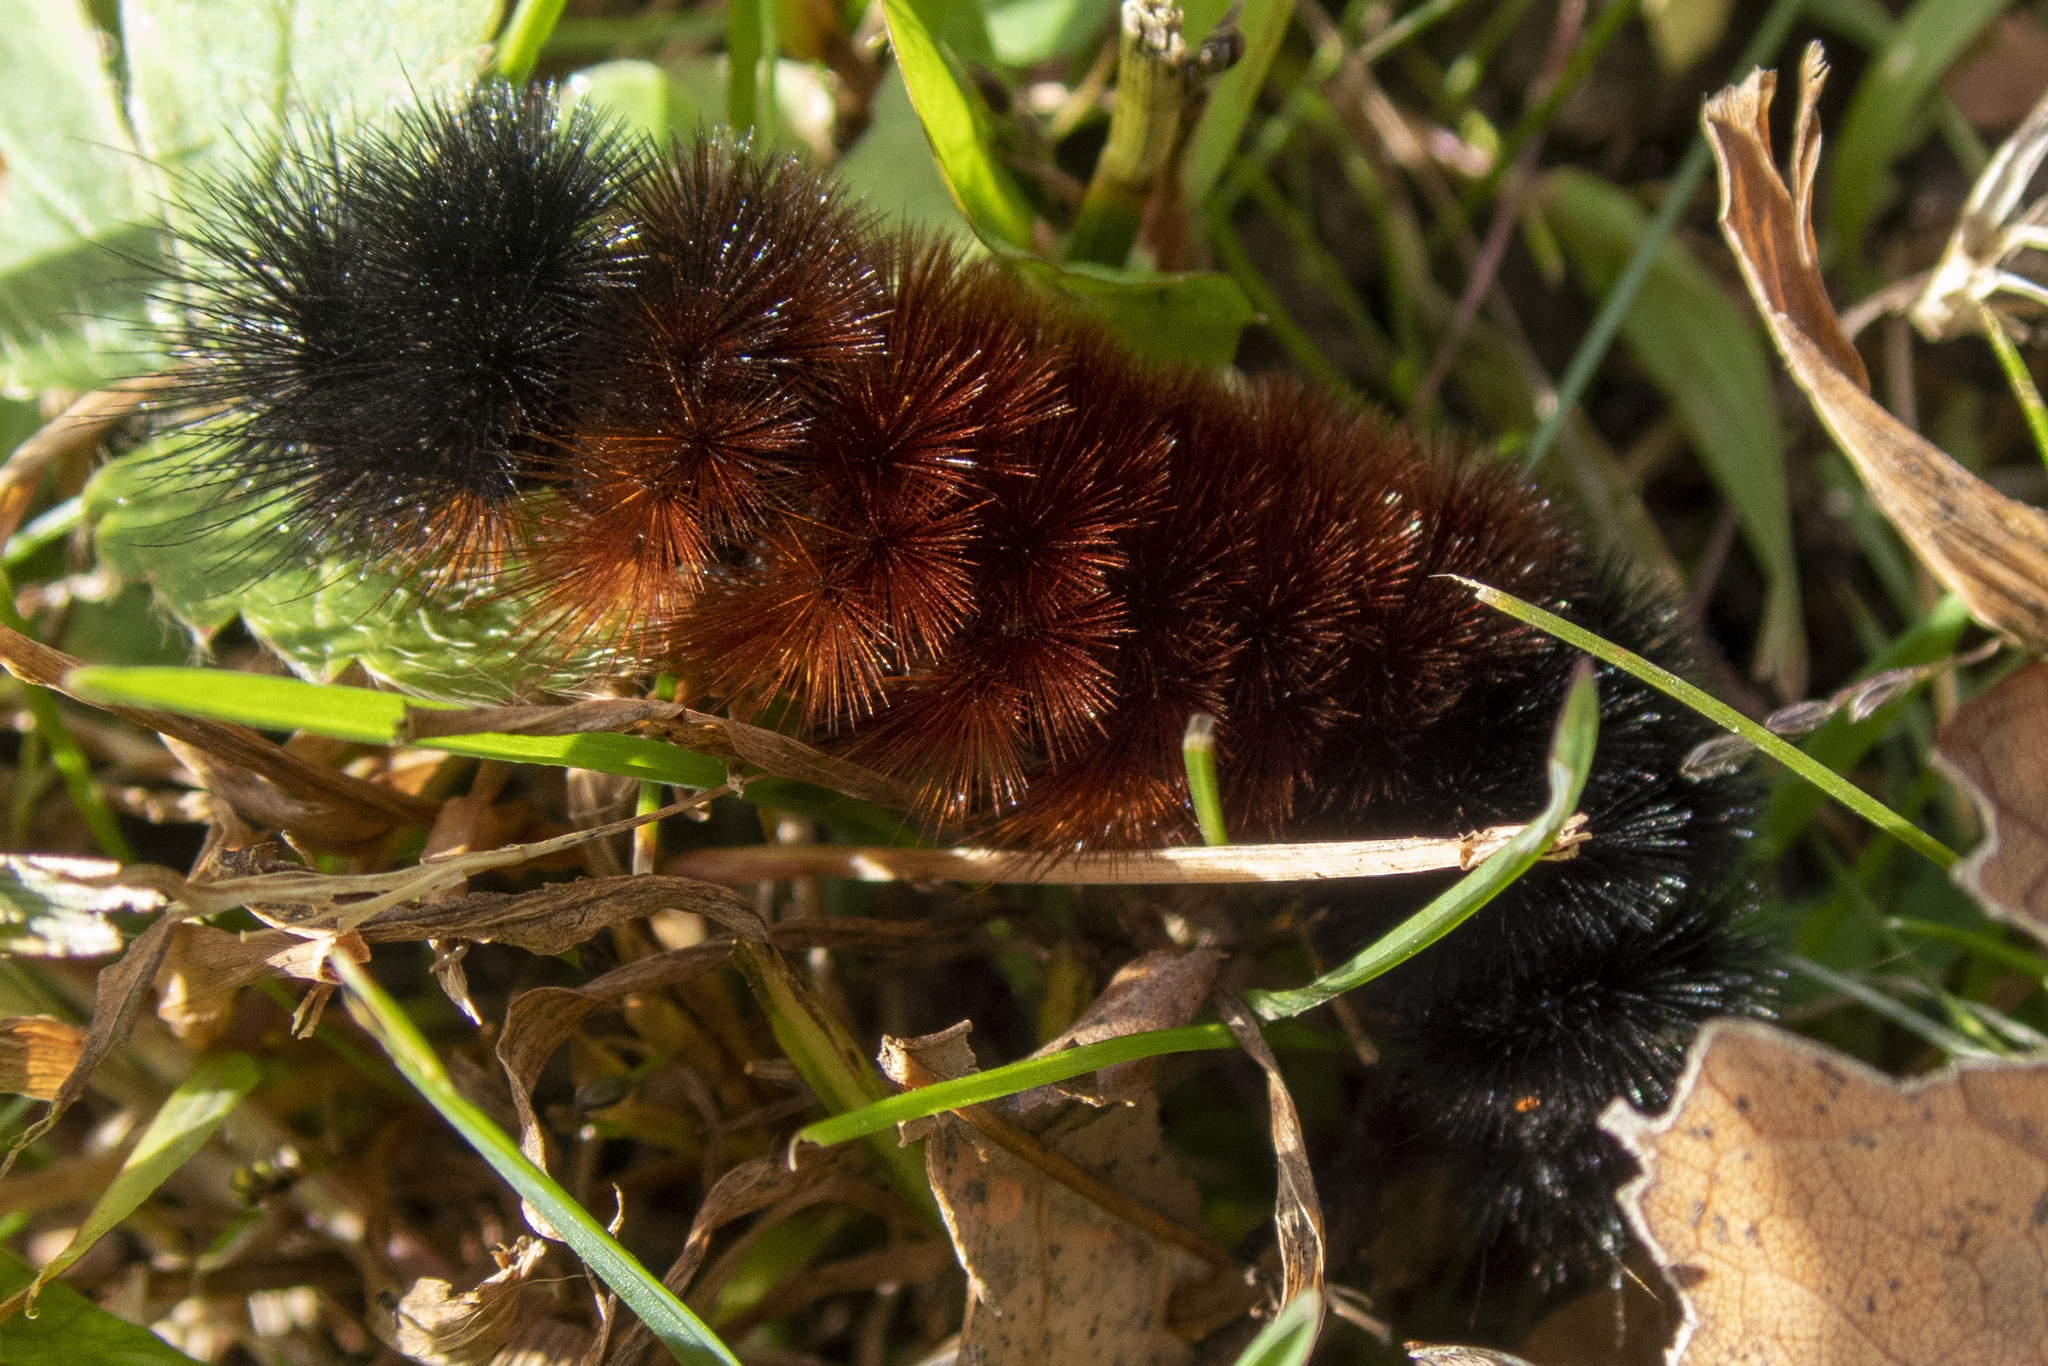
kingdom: Animalia
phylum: Arthropoda
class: Insecta
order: Lepidoptera
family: Erebidae
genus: Pyrrharctia
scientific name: Pyrrharctia isabella
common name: Isabella tiger moth
